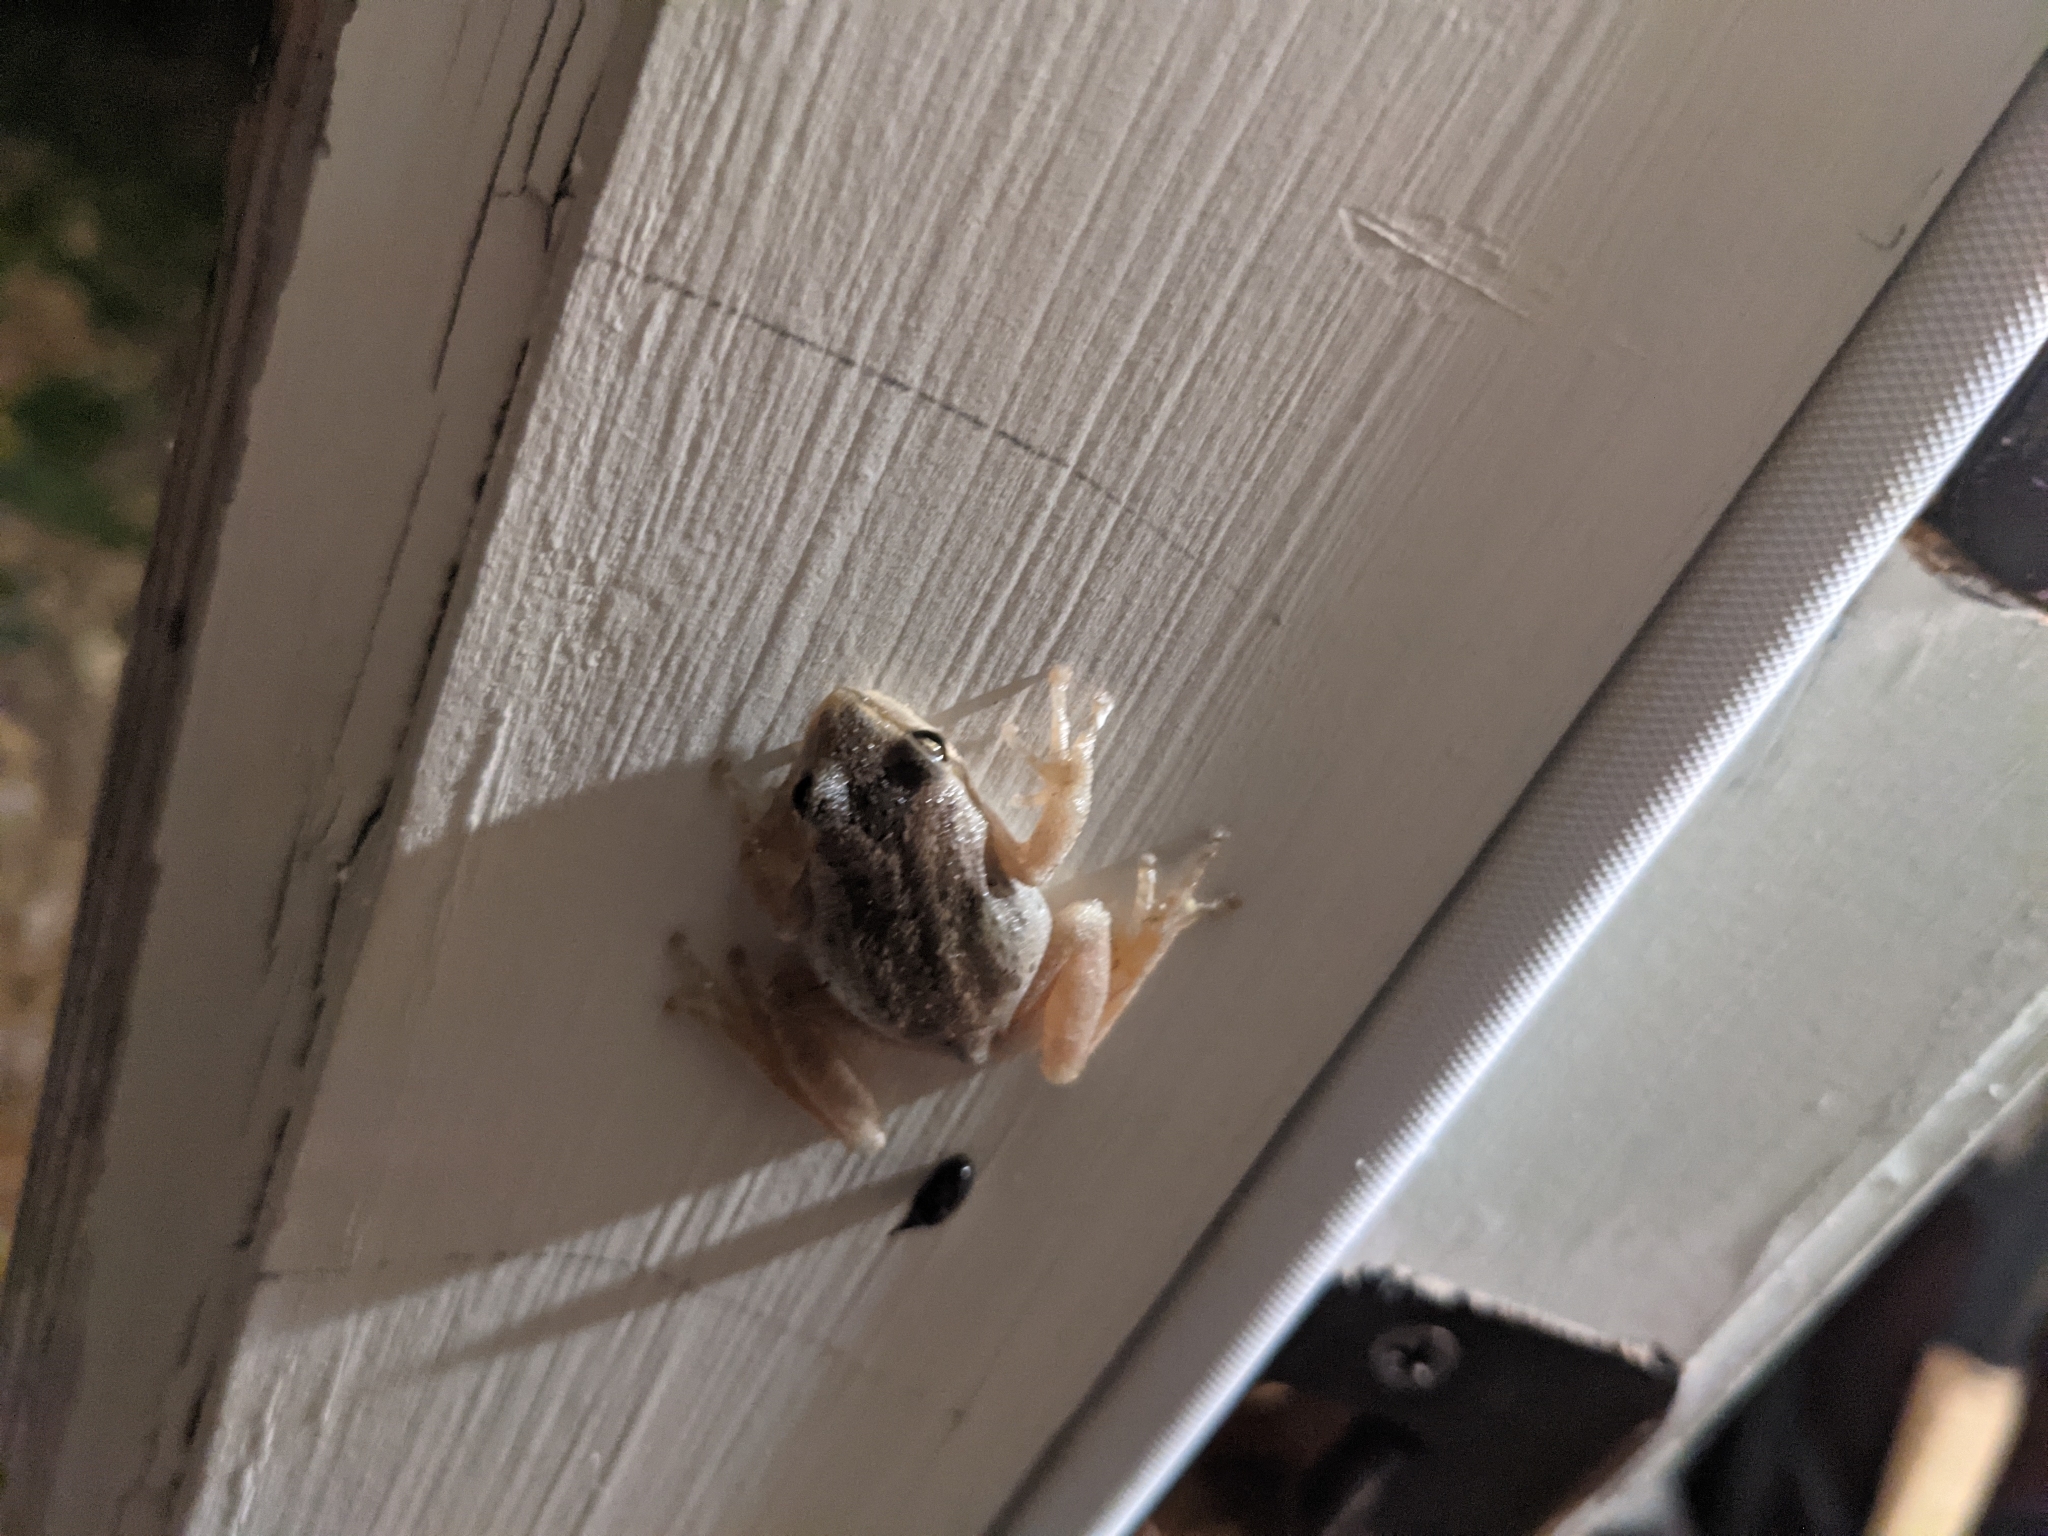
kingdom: Animalia
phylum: Chordata
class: Amphibia
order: Anura
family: Hylidae
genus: Pseudacris
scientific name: Pseudacris regilla
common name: Pacific chorus frog
